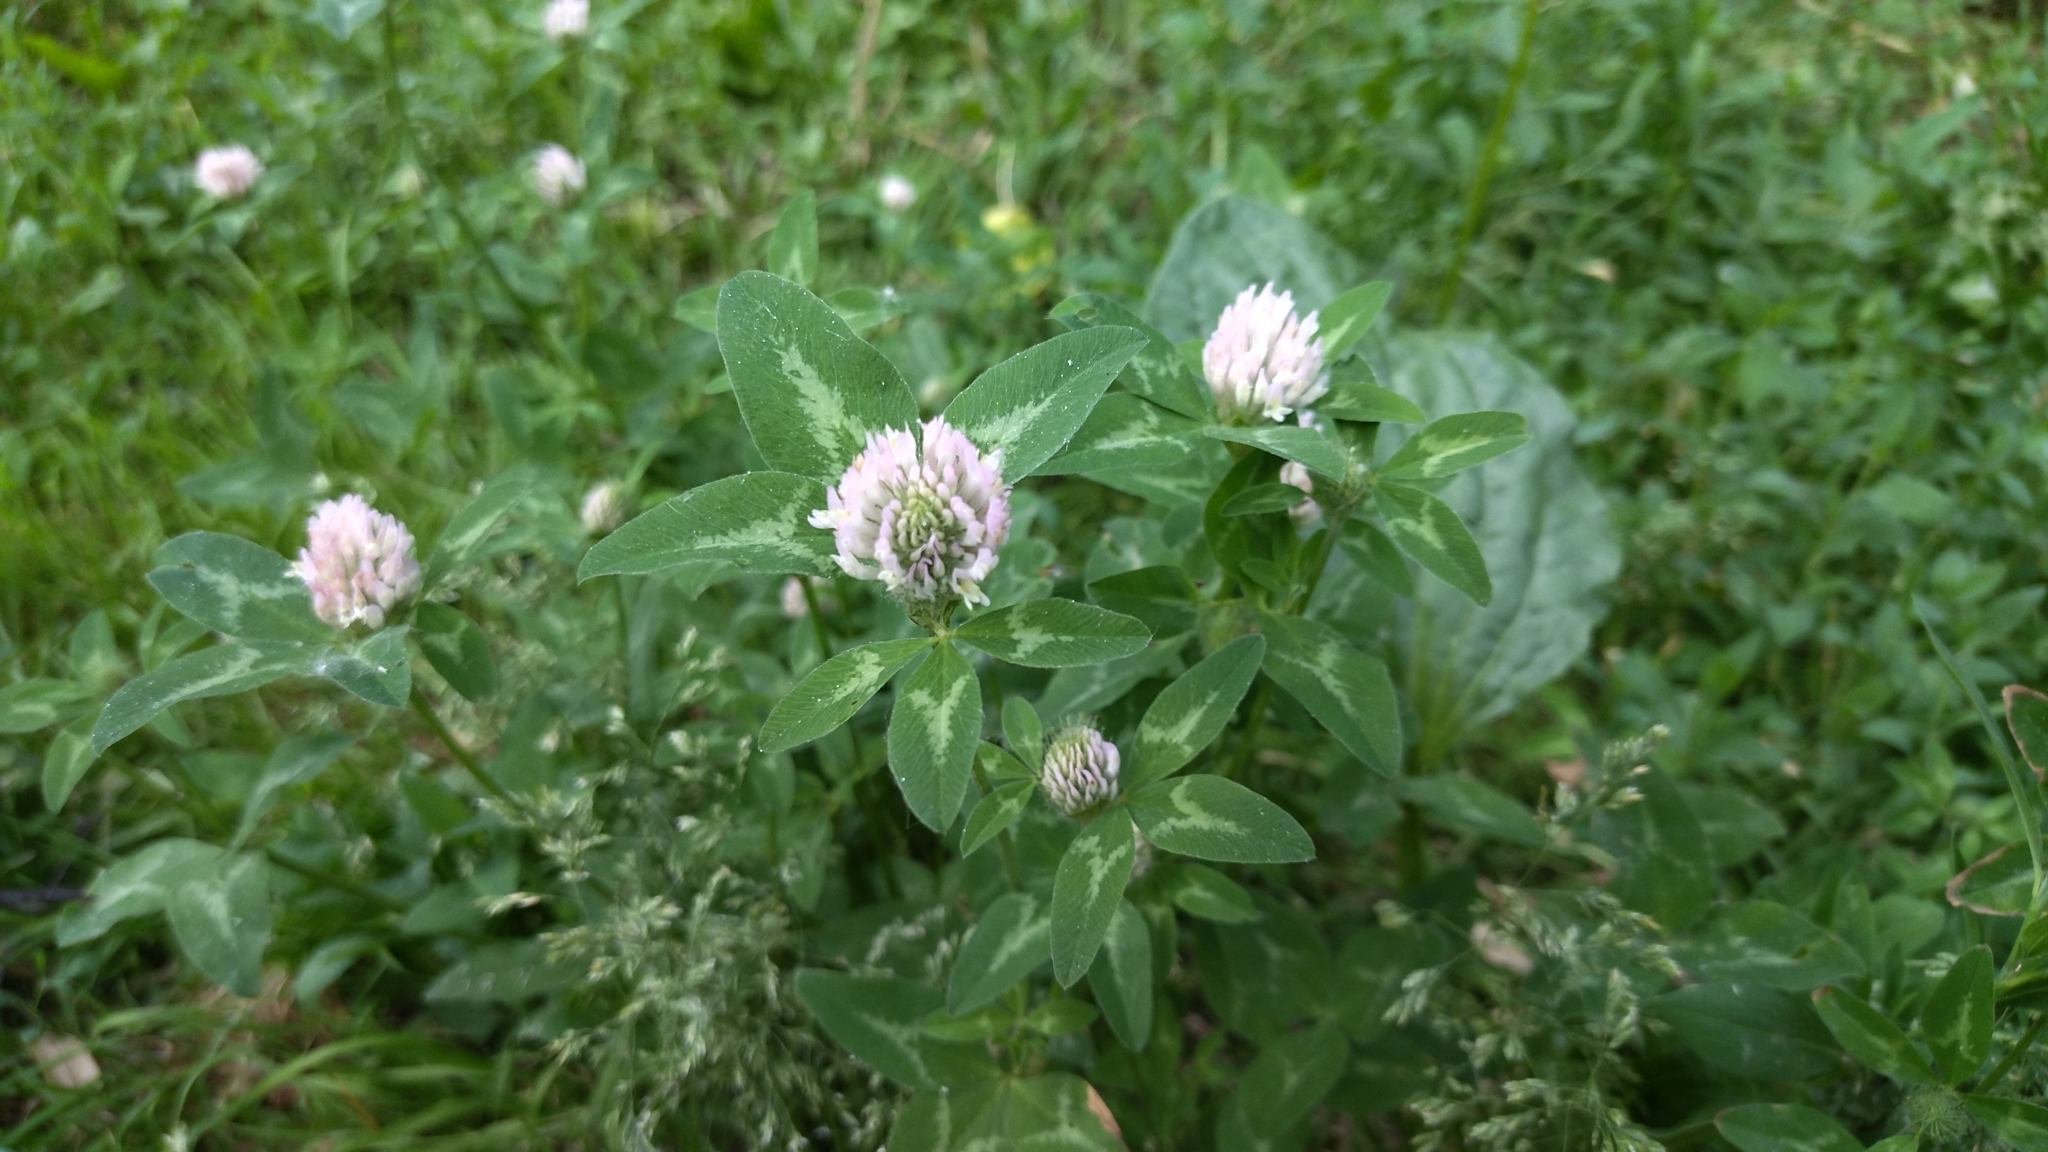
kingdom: Plantae
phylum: Tracheophyta
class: Magnoliopsida
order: Fabales
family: Fabaceae
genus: Trifolium
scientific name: Trifolium pratense
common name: Red clover
